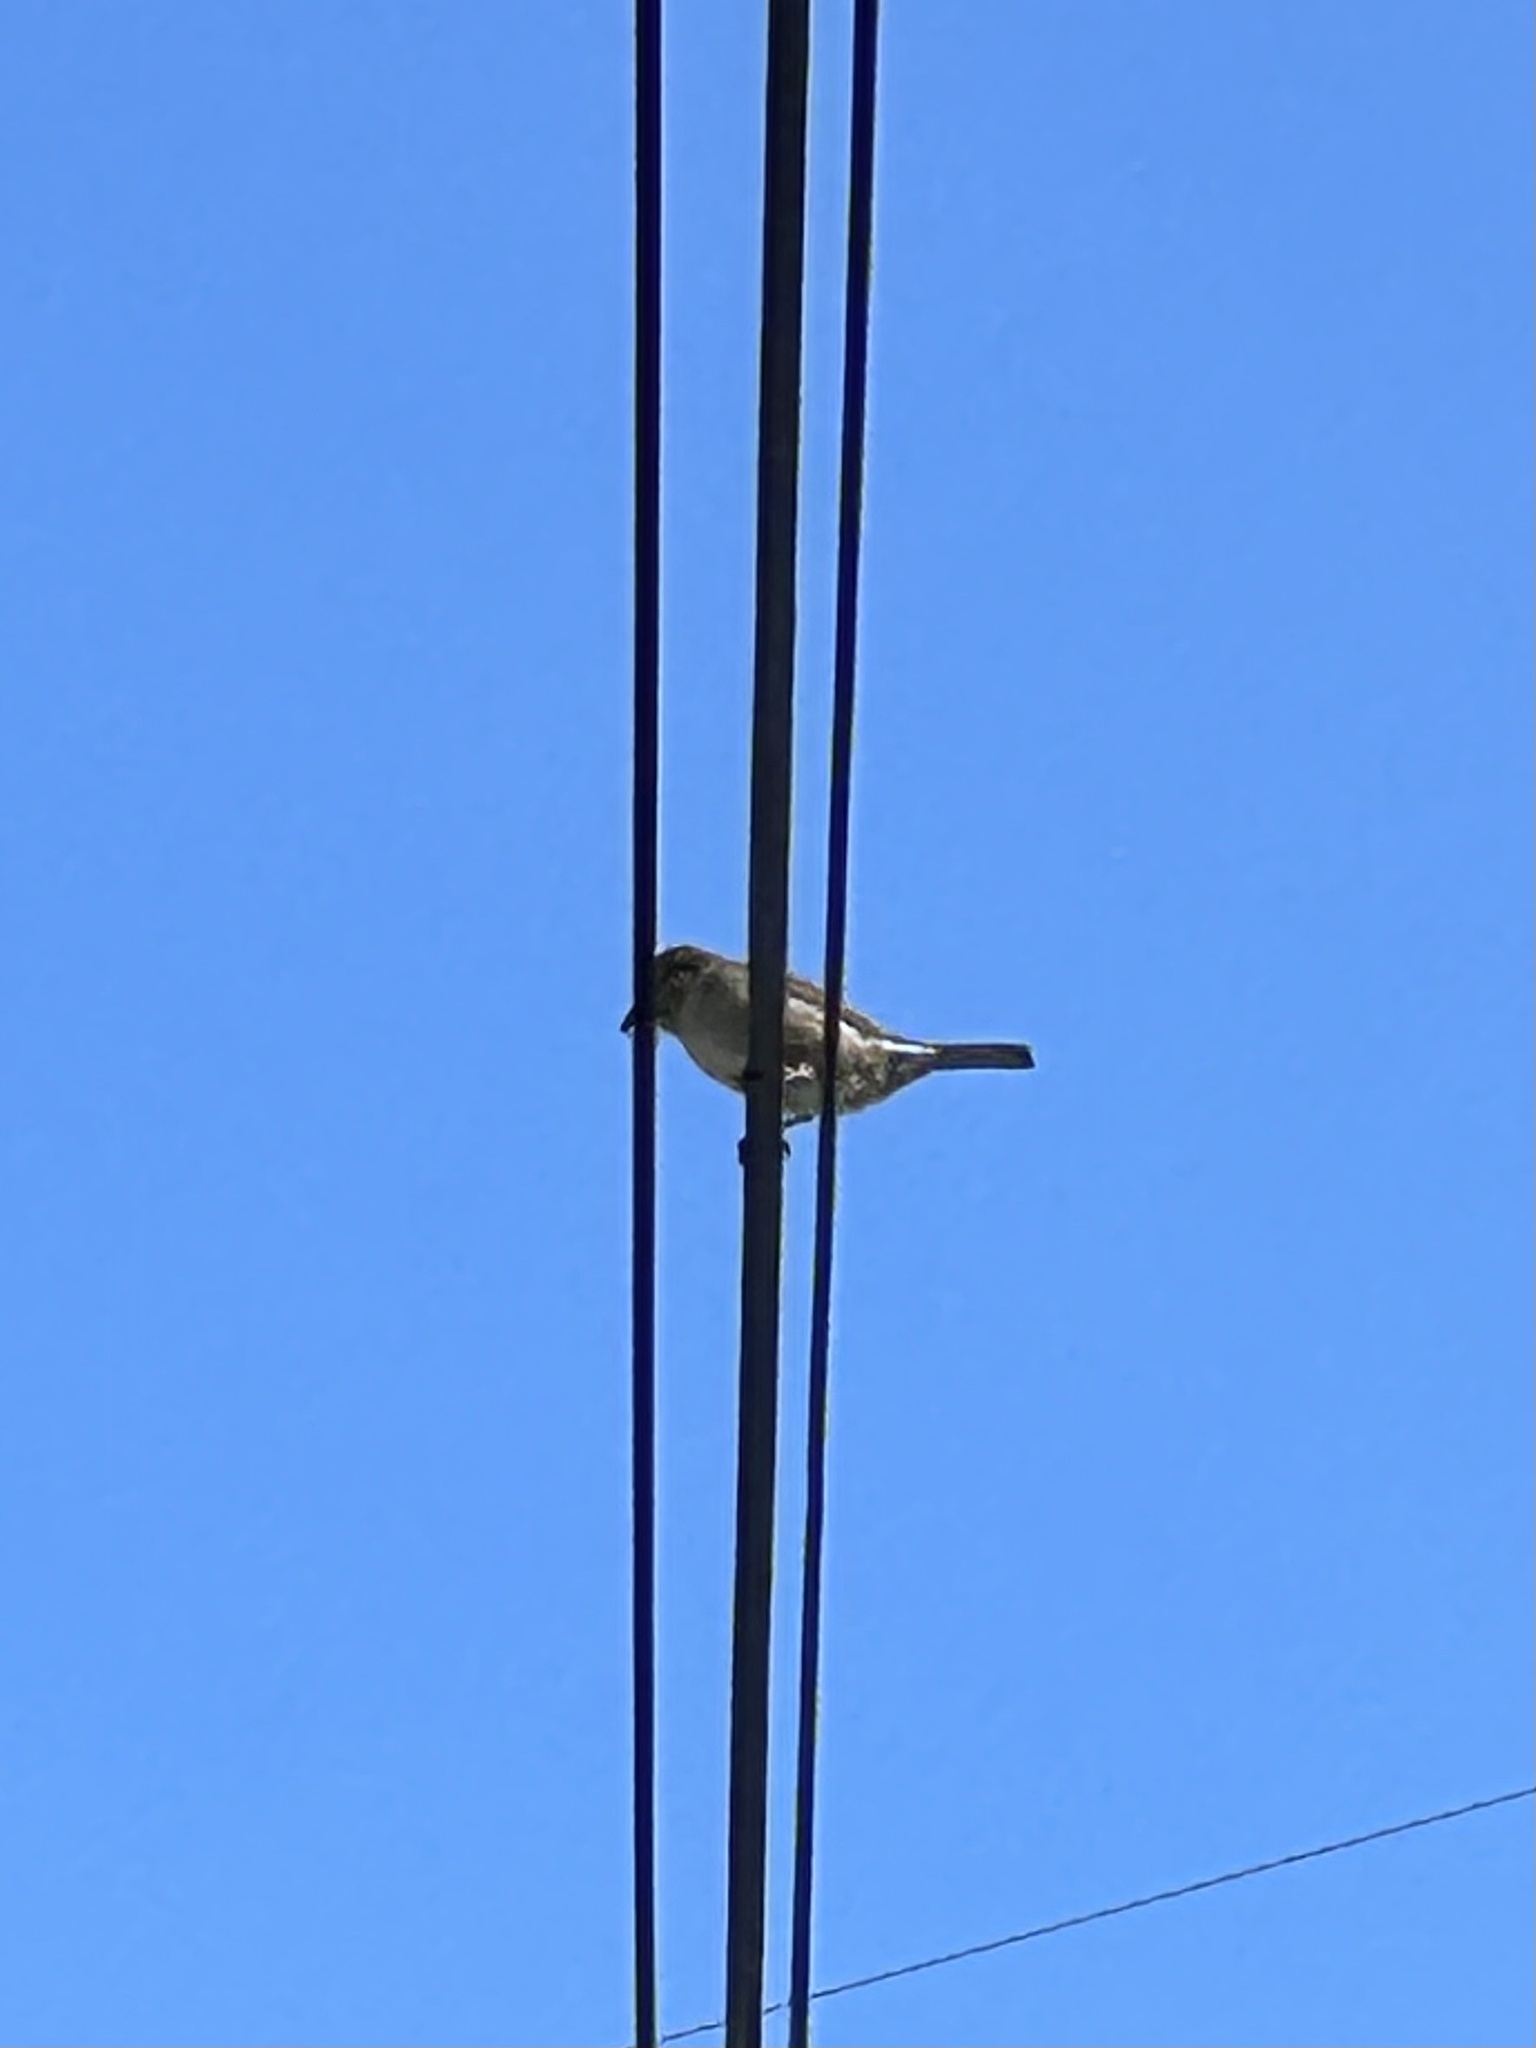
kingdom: Animalia
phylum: Chordata
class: Aves
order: Passeriformes
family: Passeridae
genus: Passer
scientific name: Passer domesticus
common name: House sparrow
